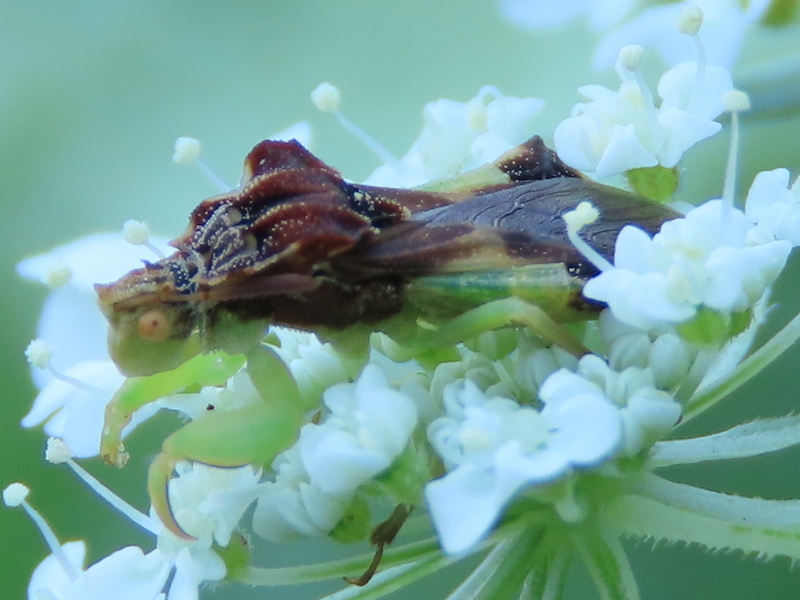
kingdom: Animalia
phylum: Arthropoda
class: Insecta
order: Hemiptera
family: Reduviidae
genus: Phymata
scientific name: Phymata pennsylvanica
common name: Pennsylvania ambush bug
